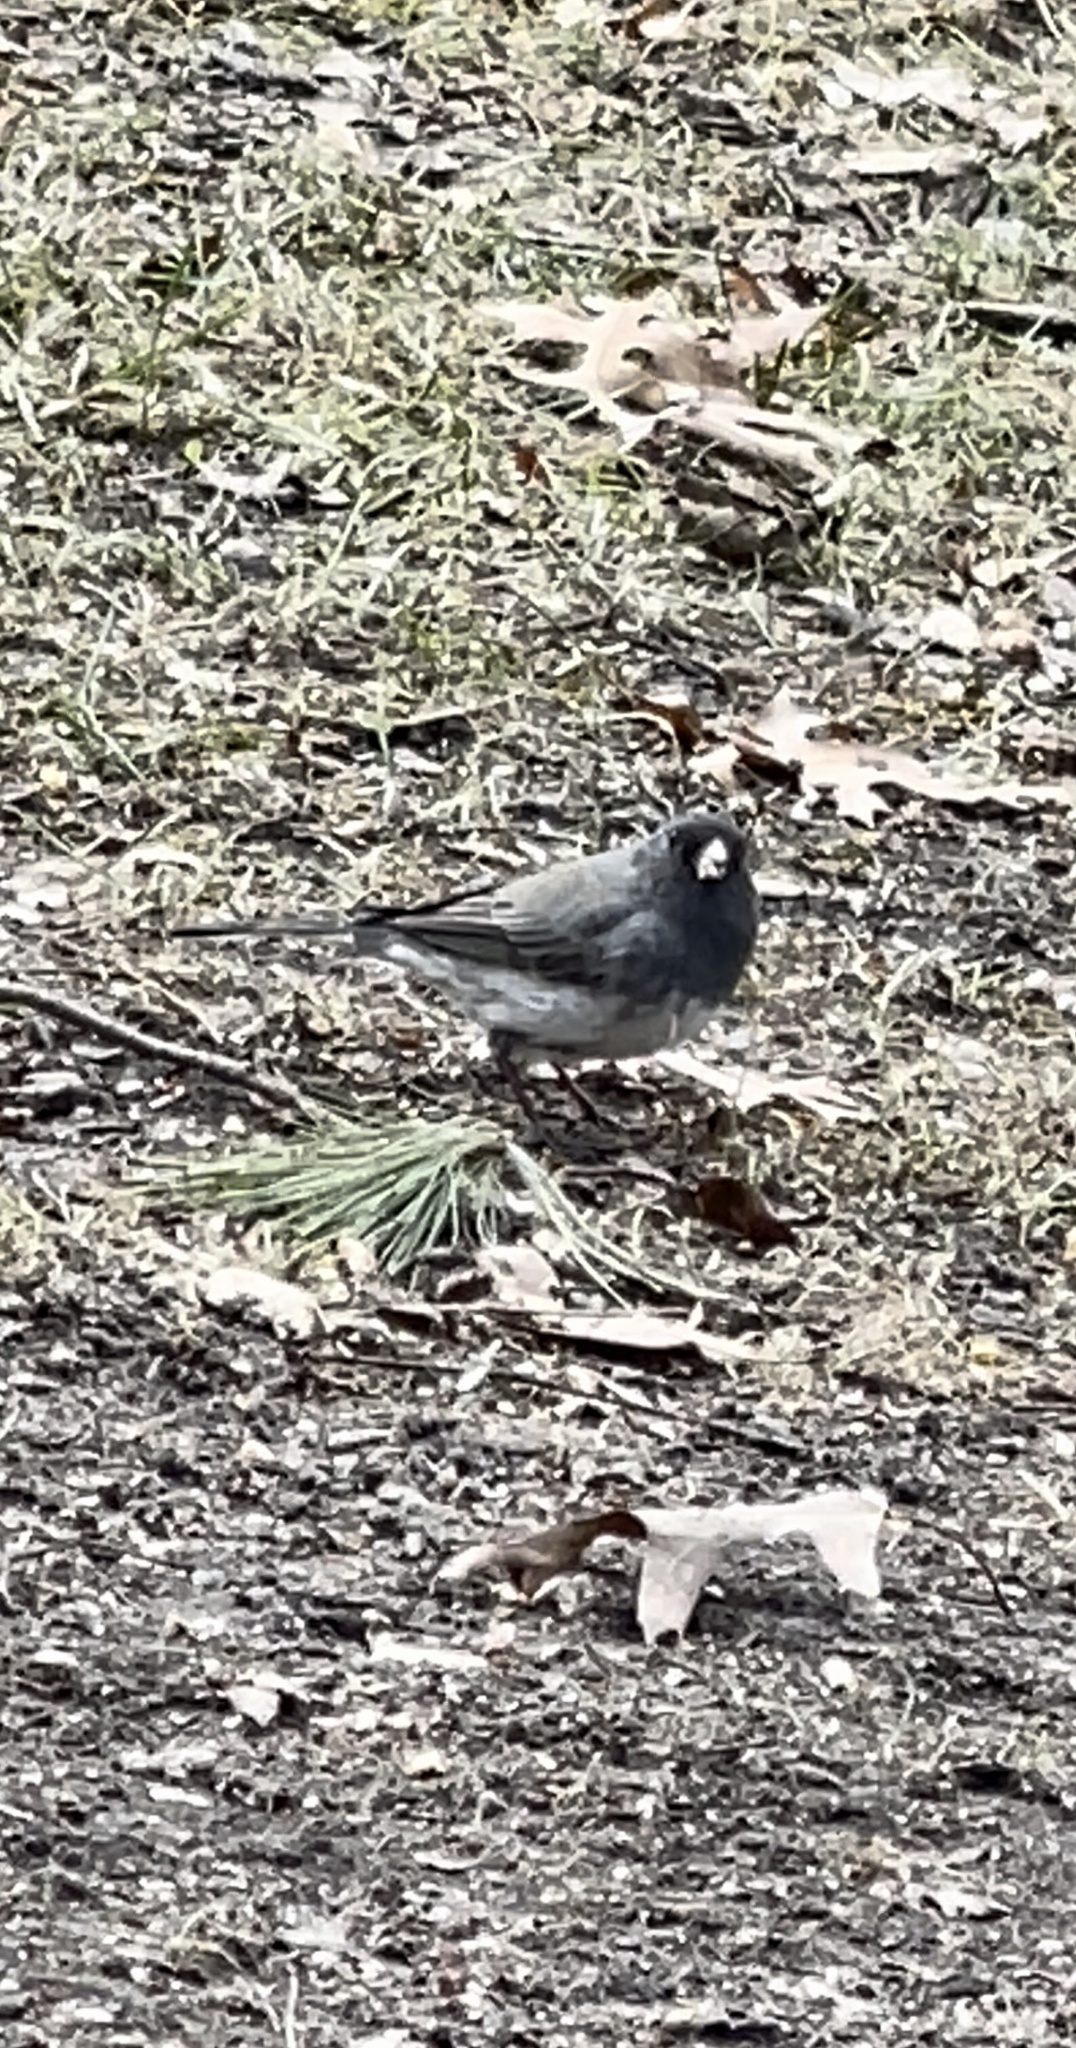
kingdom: Animalia
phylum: Chordata
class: Aves
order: Passeriformes
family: Passerellidae
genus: Junco
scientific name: Junco hyemalis
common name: Dark-eyed junco
